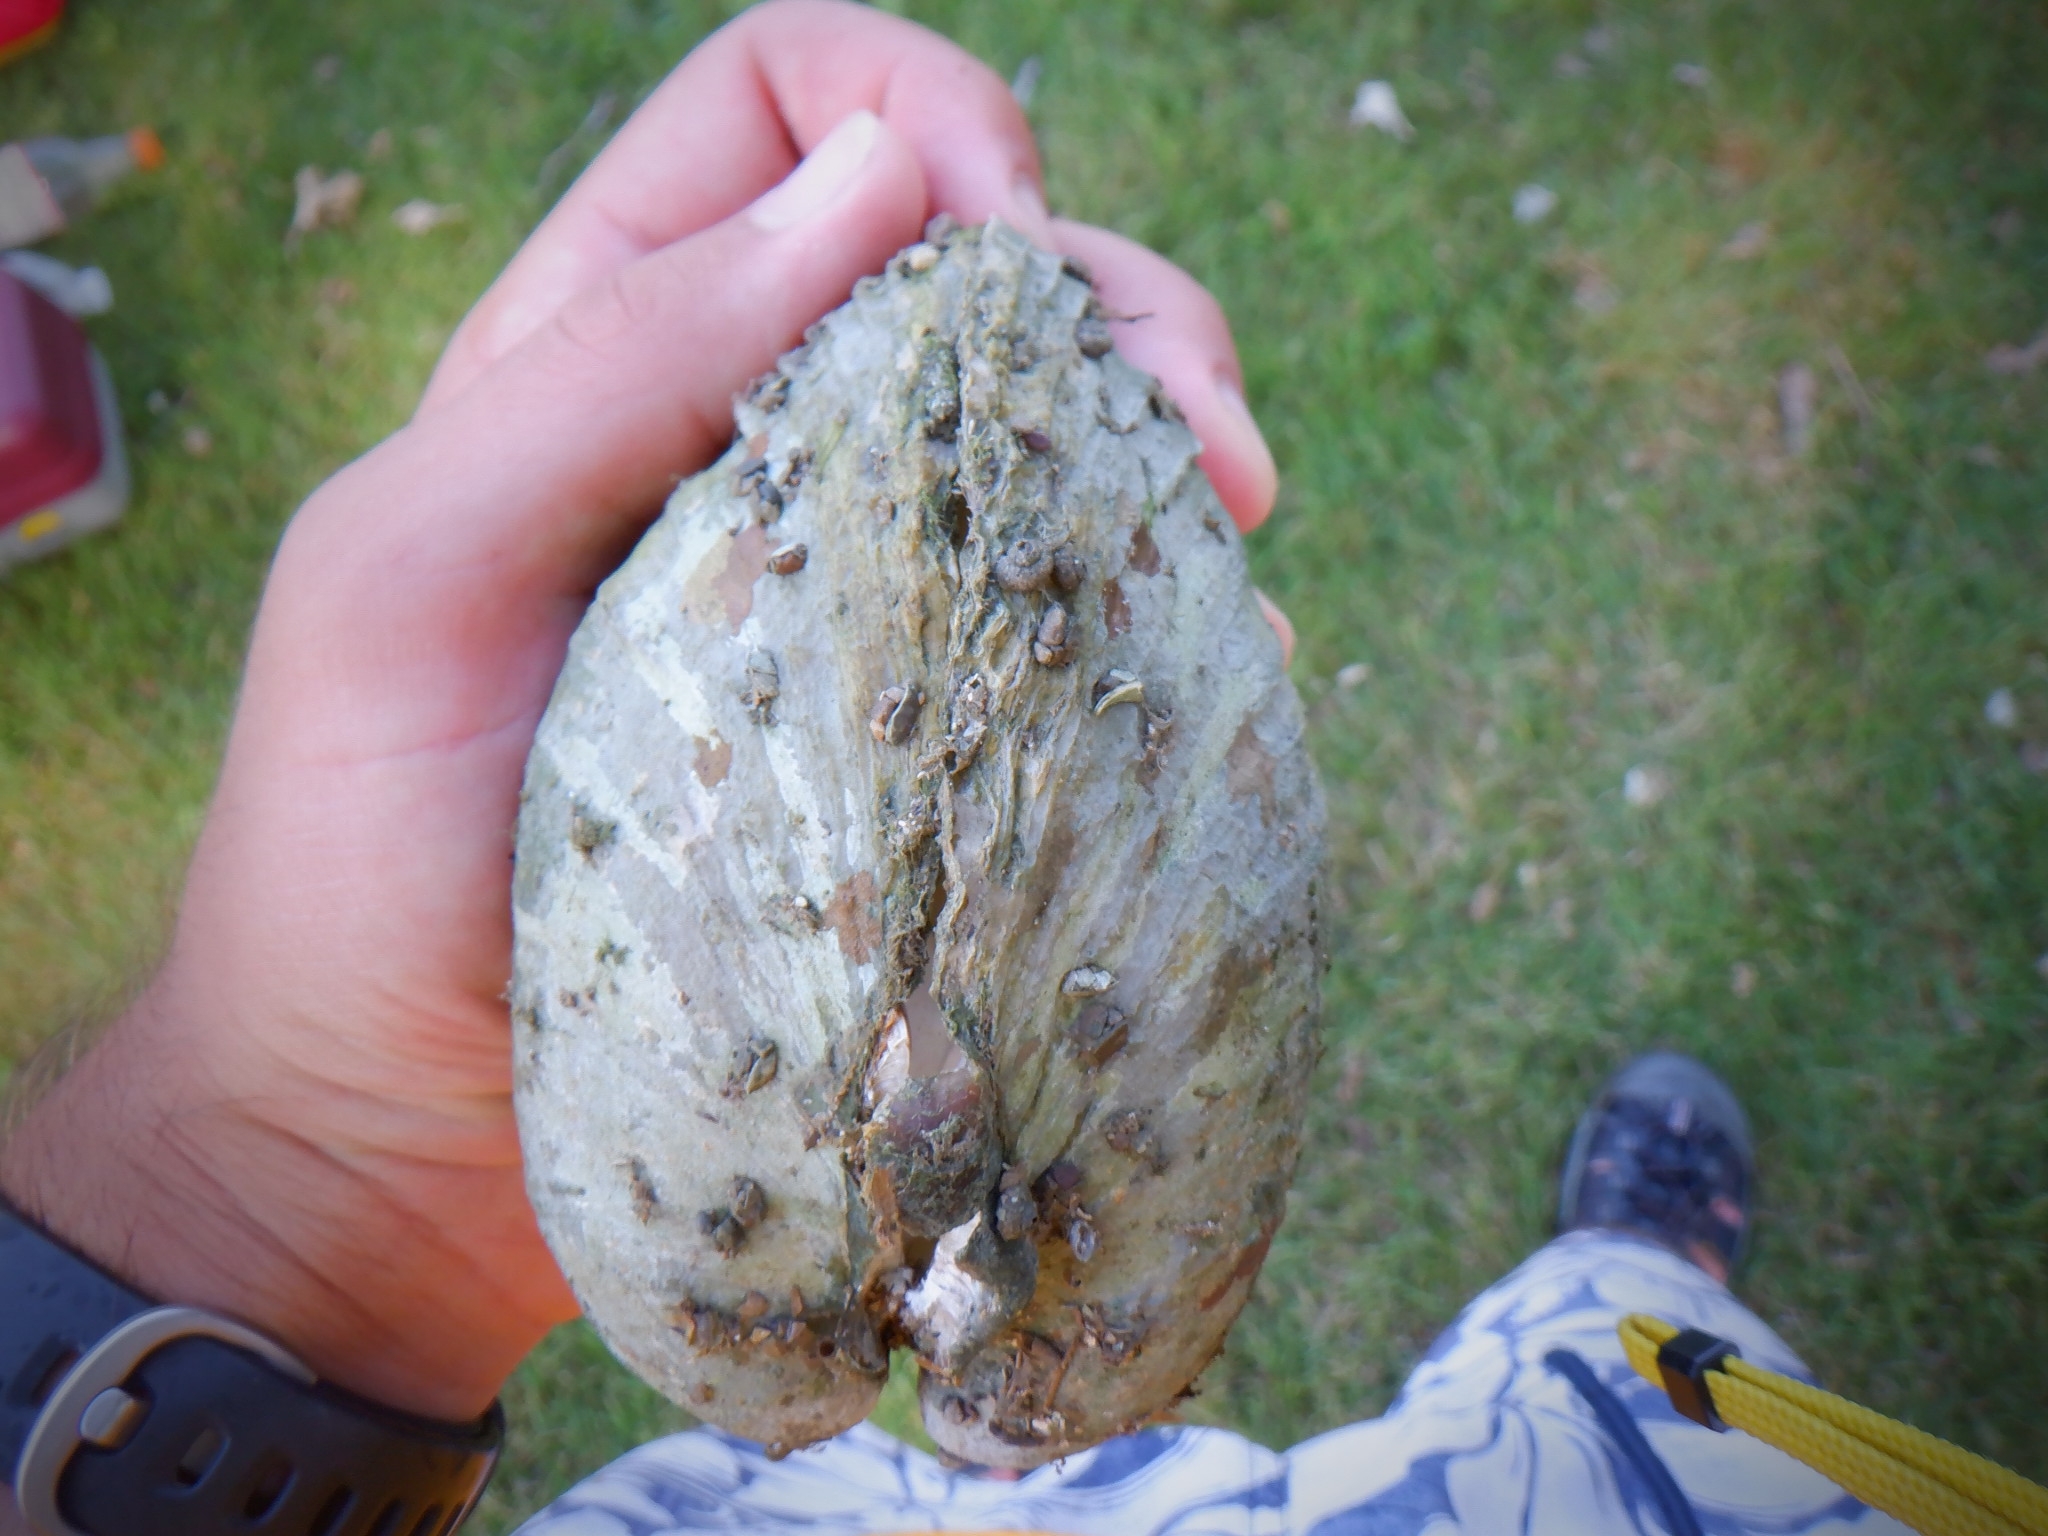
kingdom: Animalia
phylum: Mollusca
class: Bivalvia
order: Unionida
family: Unionidae
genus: Lampsilis
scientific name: Lampsilis cardium
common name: Plain pocketbook
